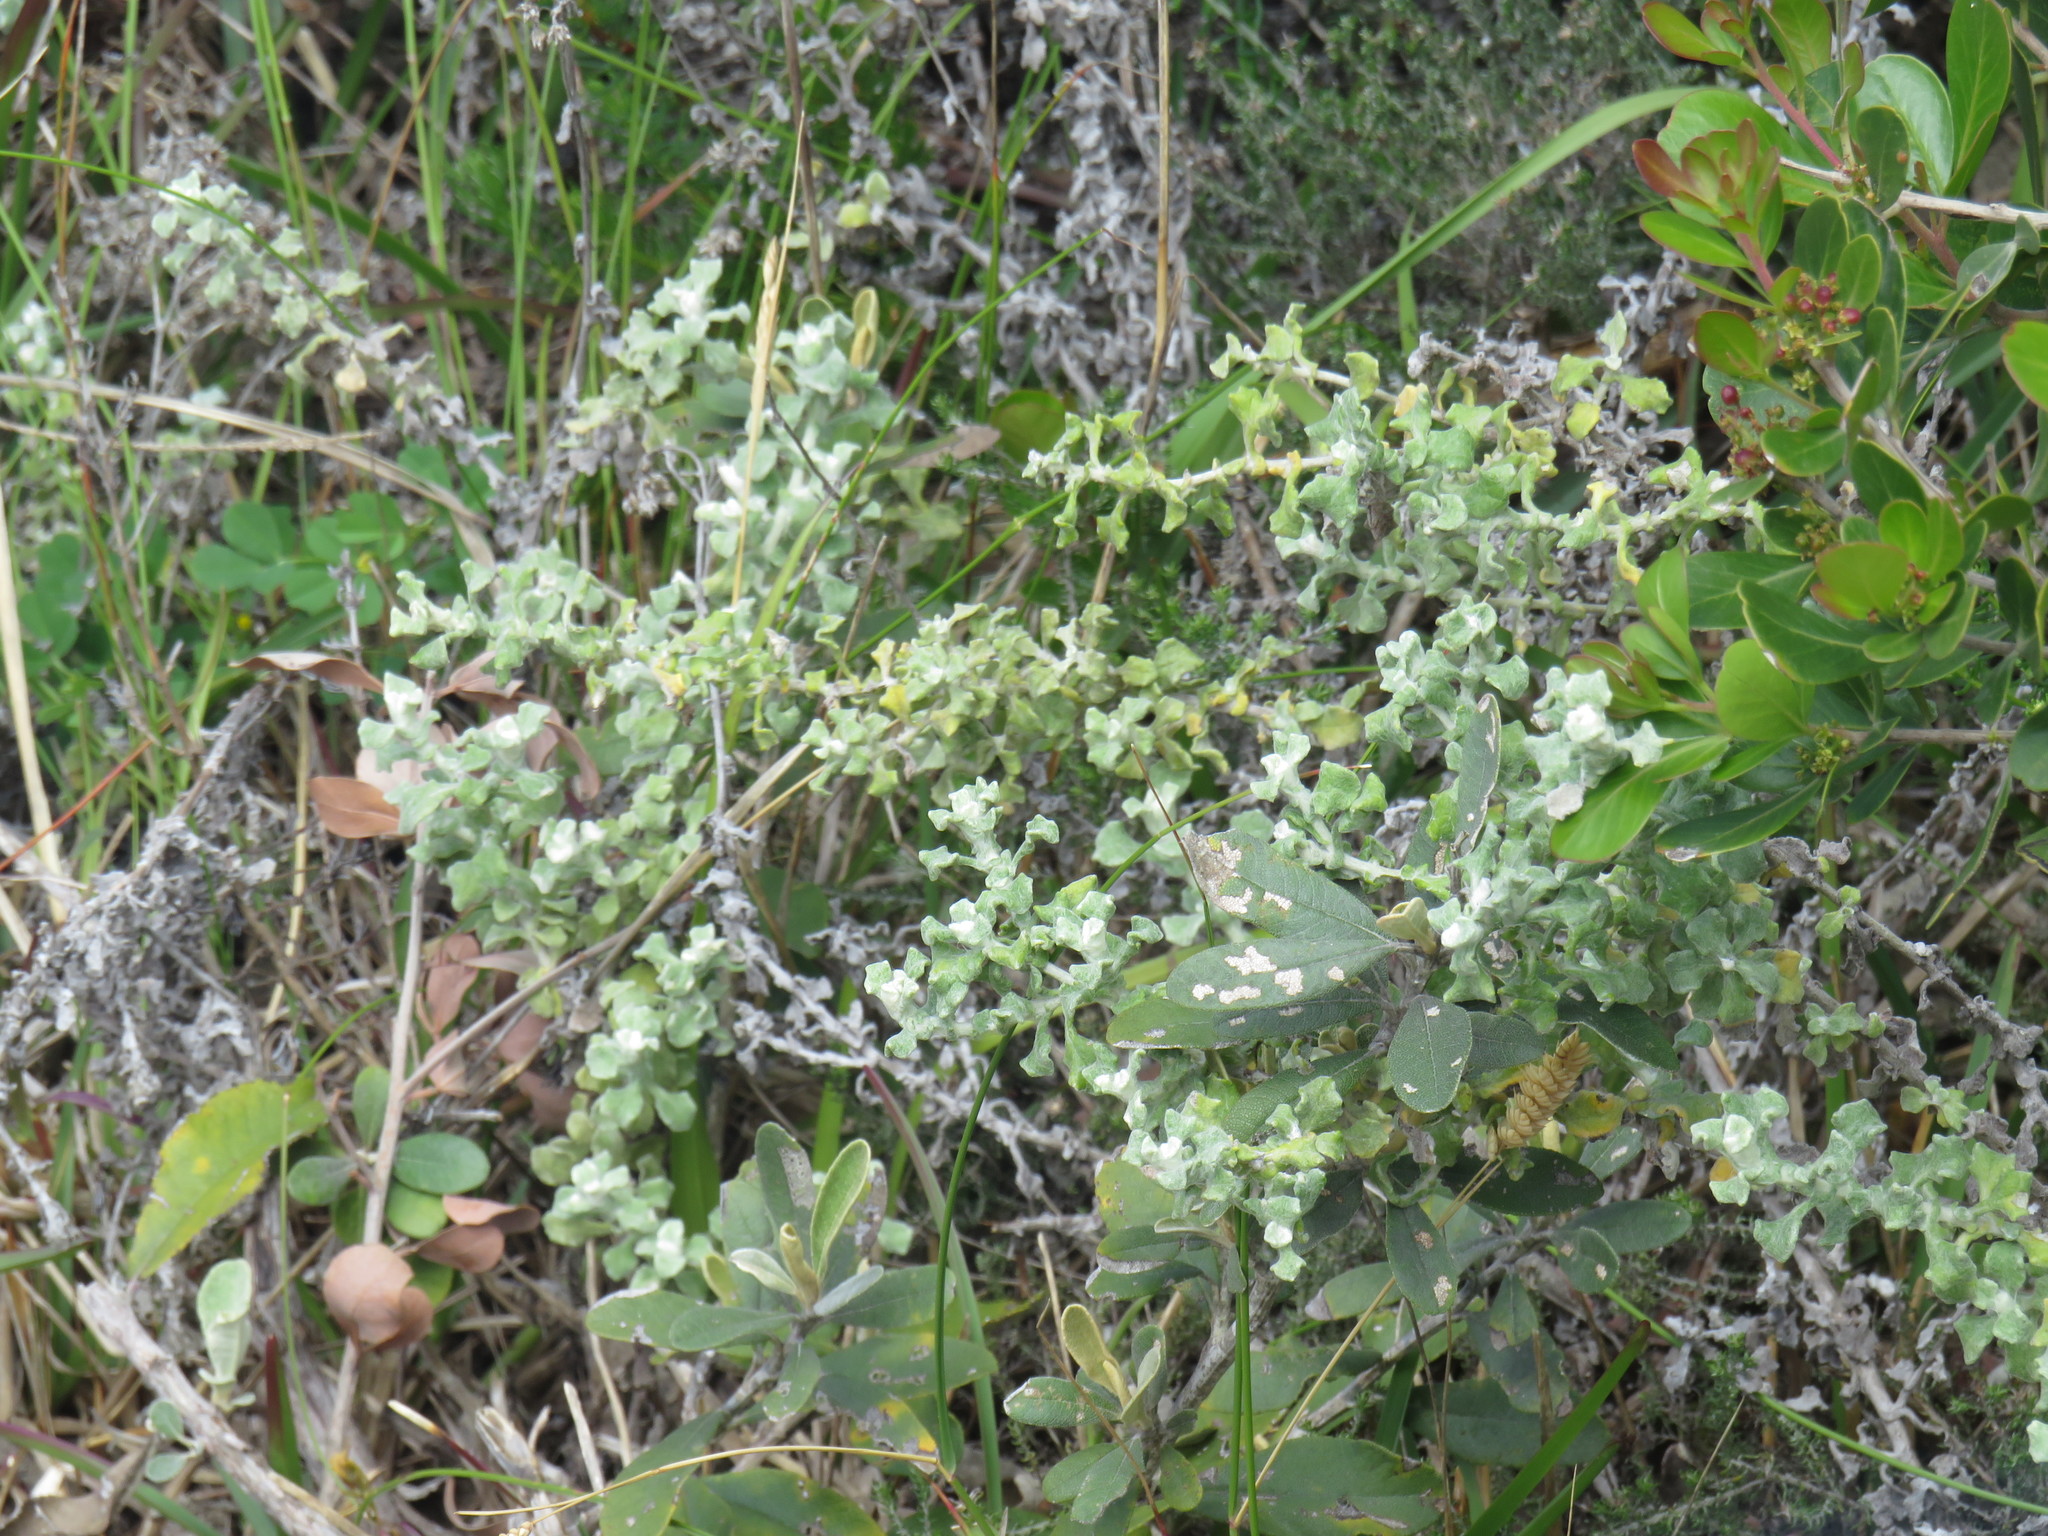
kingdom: Plantae
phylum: Tracheophyta
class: Magnoliopsida
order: Asterales
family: Asteraceae
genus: Helichrysum
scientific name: Helichrysum patulum
